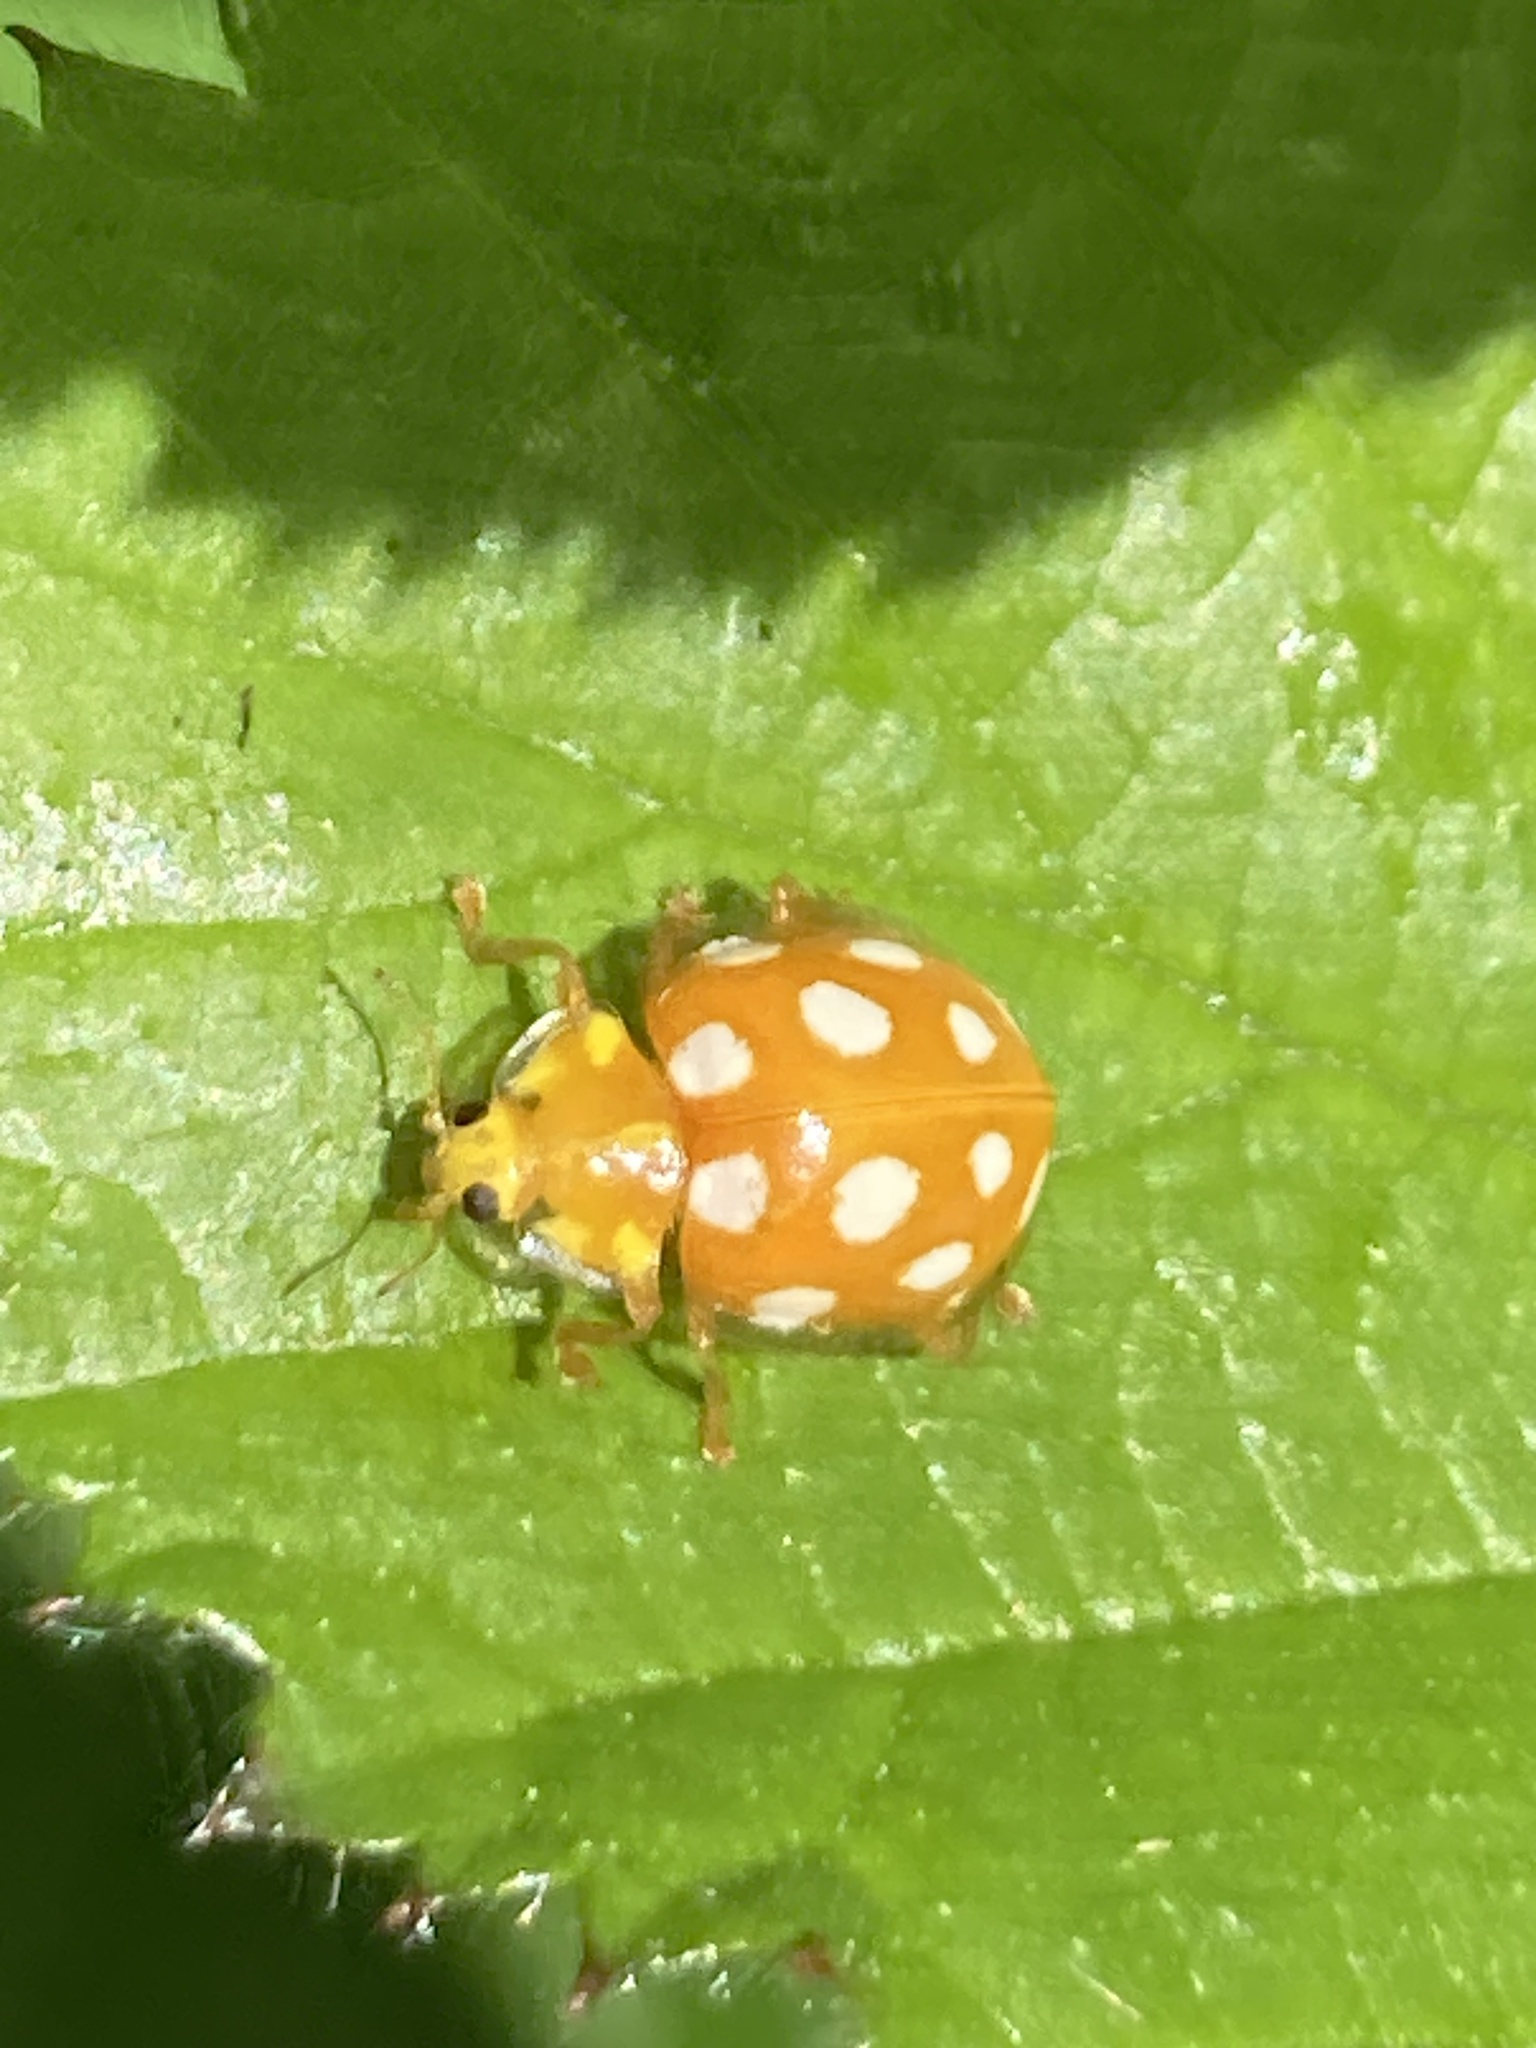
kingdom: Animalia
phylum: Arthropoda
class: Insecta
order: Coleoptera
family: Coccinellidae
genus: Halyzia
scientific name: Halyzia sedecimguttata
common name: Orange ladybird
